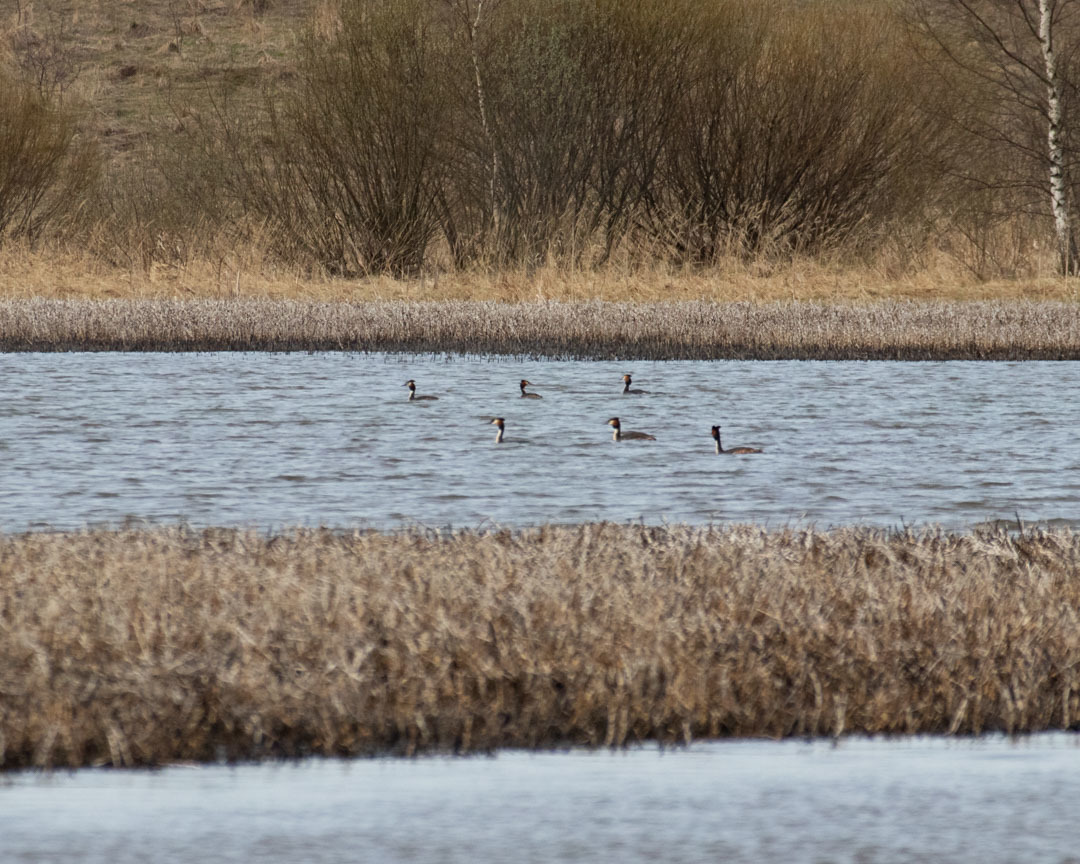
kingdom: Animalia
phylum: Chordata
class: Aves
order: Podicipediformes
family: Podicipedidae
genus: Podiceps
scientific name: Podiceps cristatus
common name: Great crested grebe
